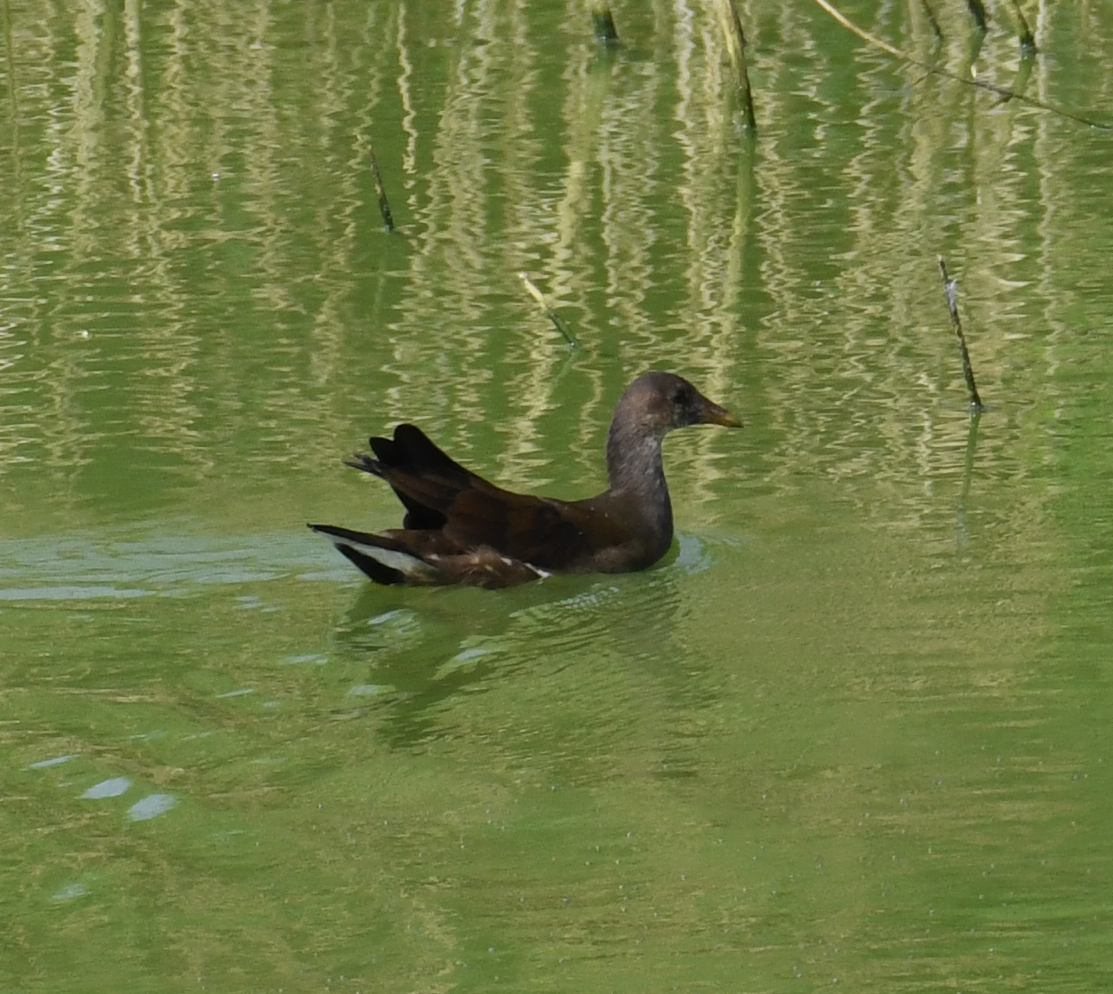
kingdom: Animalia
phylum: Chordata
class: Aves
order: Gruiformes
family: Rallidae
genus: Gallinula
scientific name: Gallinula chloropus
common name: Common moorhen
